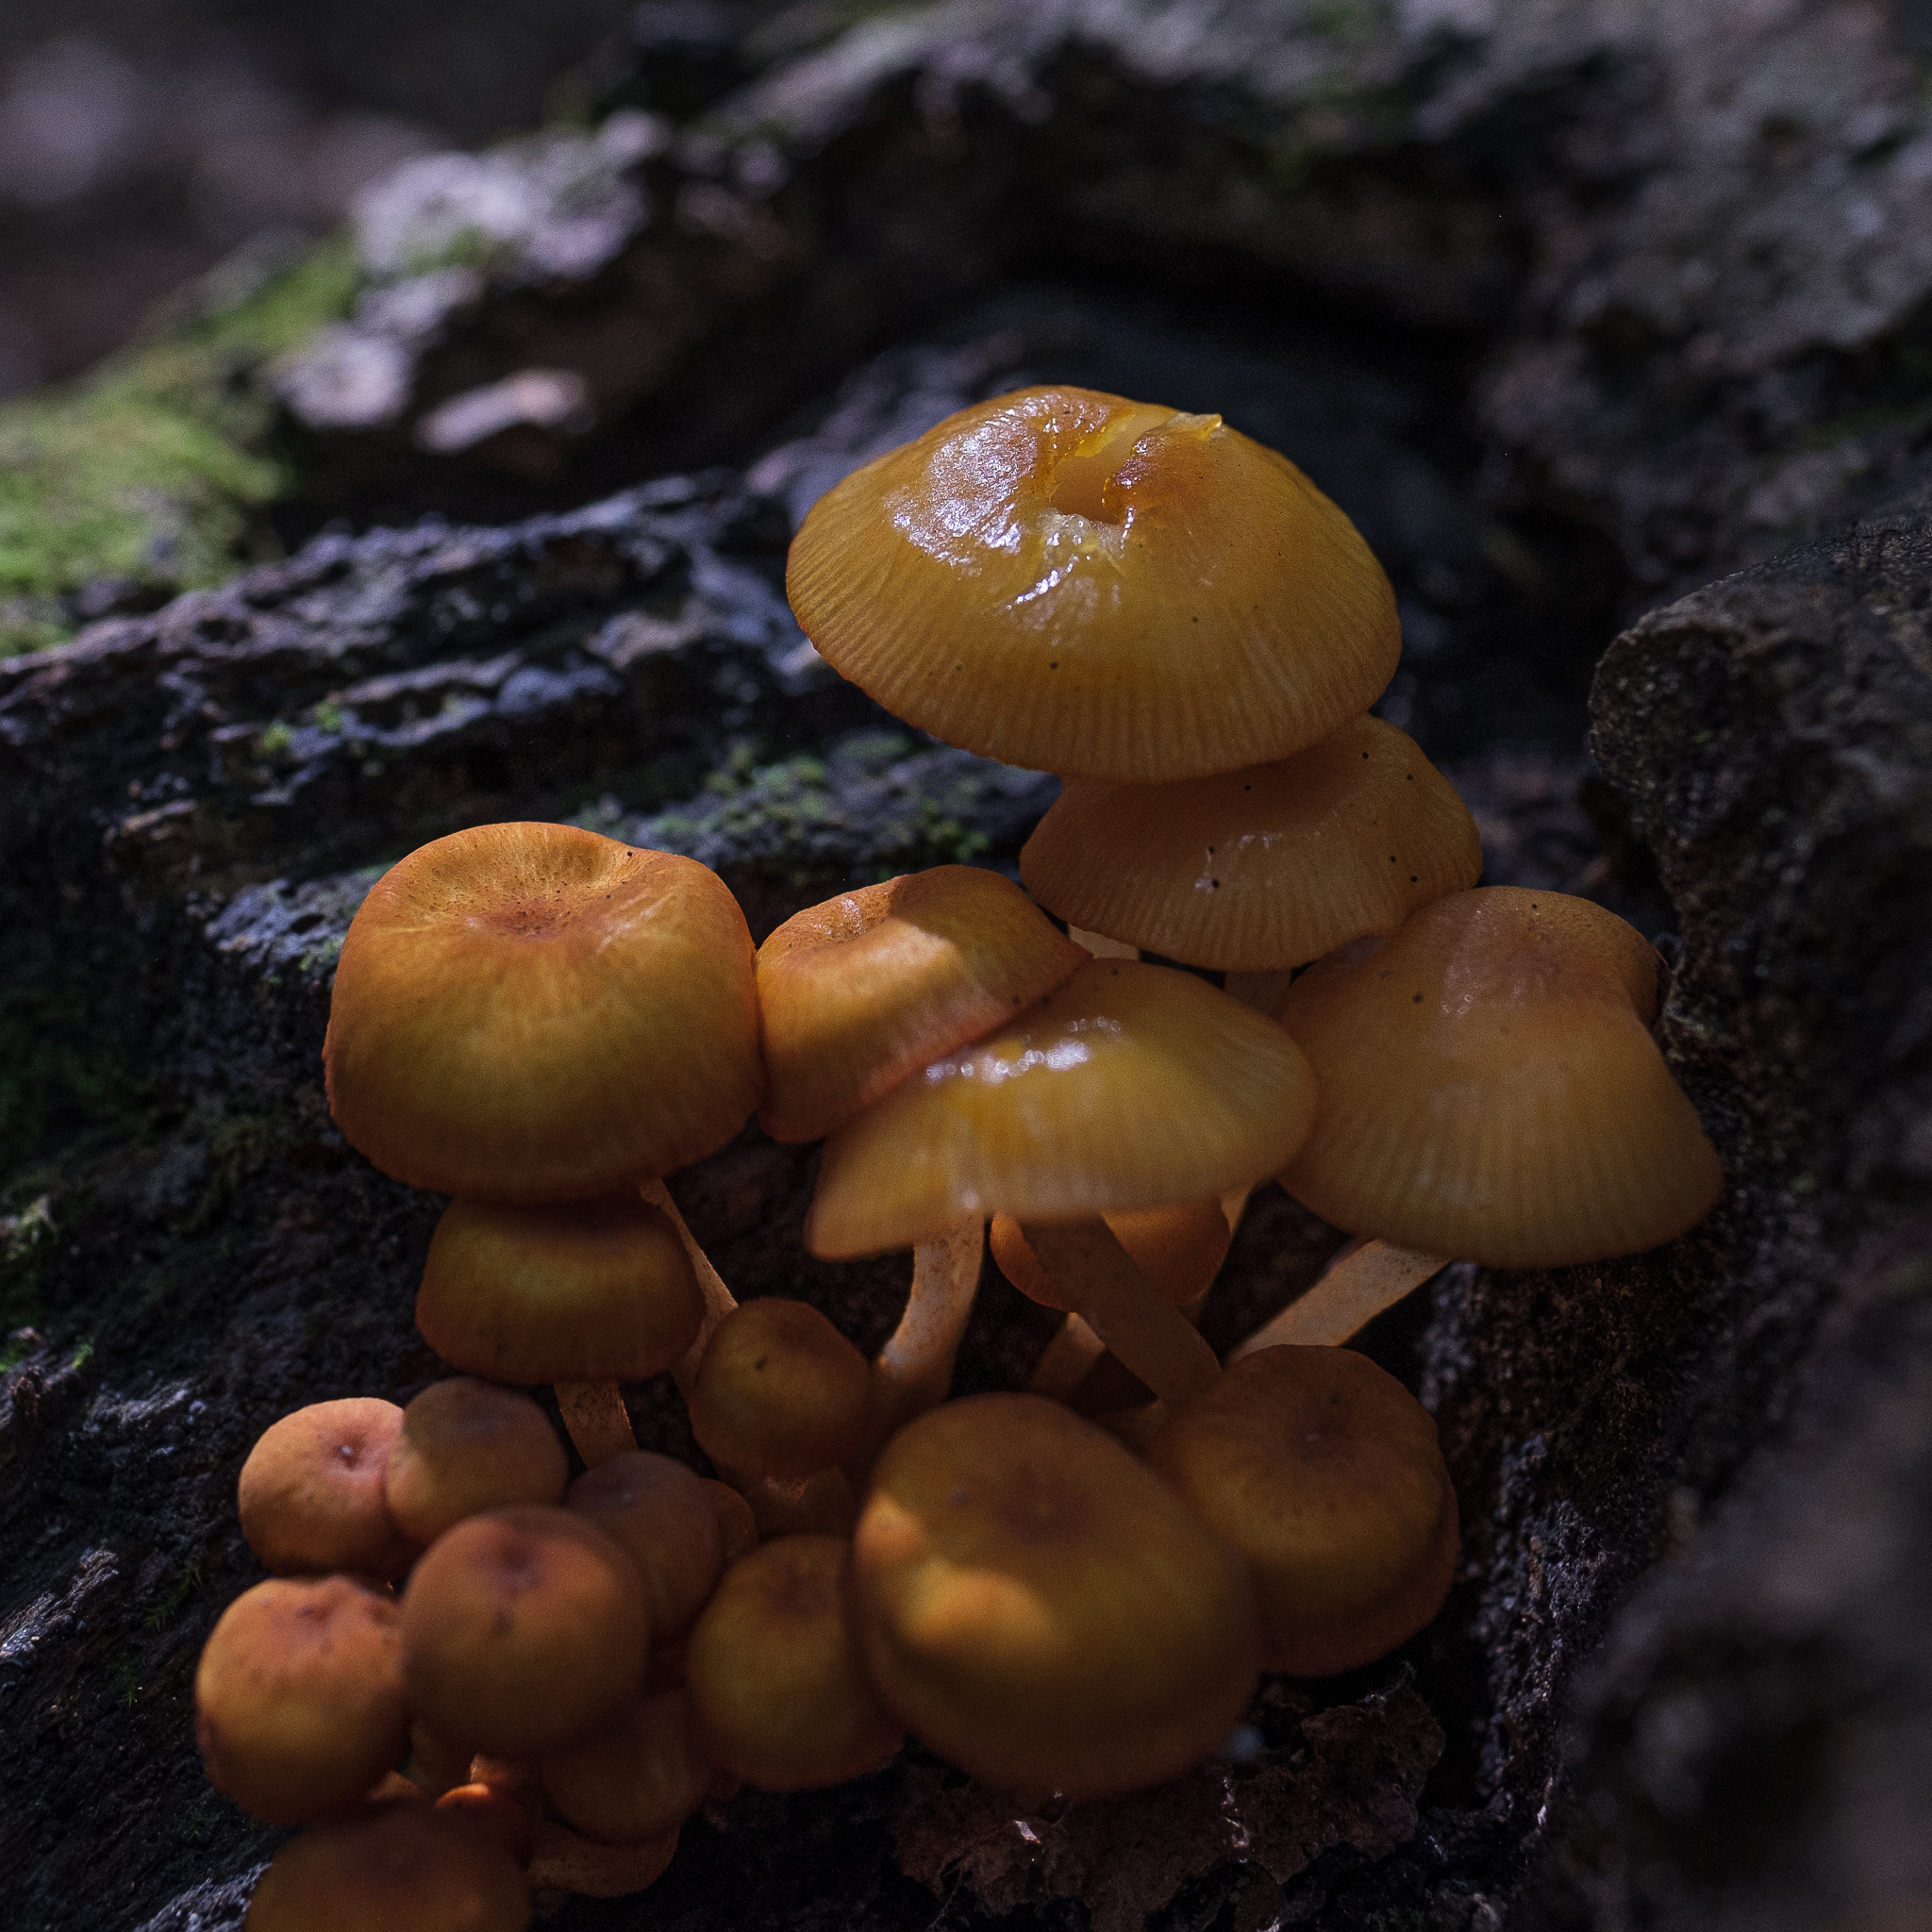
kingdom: Fungi
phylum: Basidiomycota
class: Agaricomycetes
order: Agaricales
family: Mycenaceae
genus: Mycena
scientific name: Mycena leaiana
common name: Orange mycena
